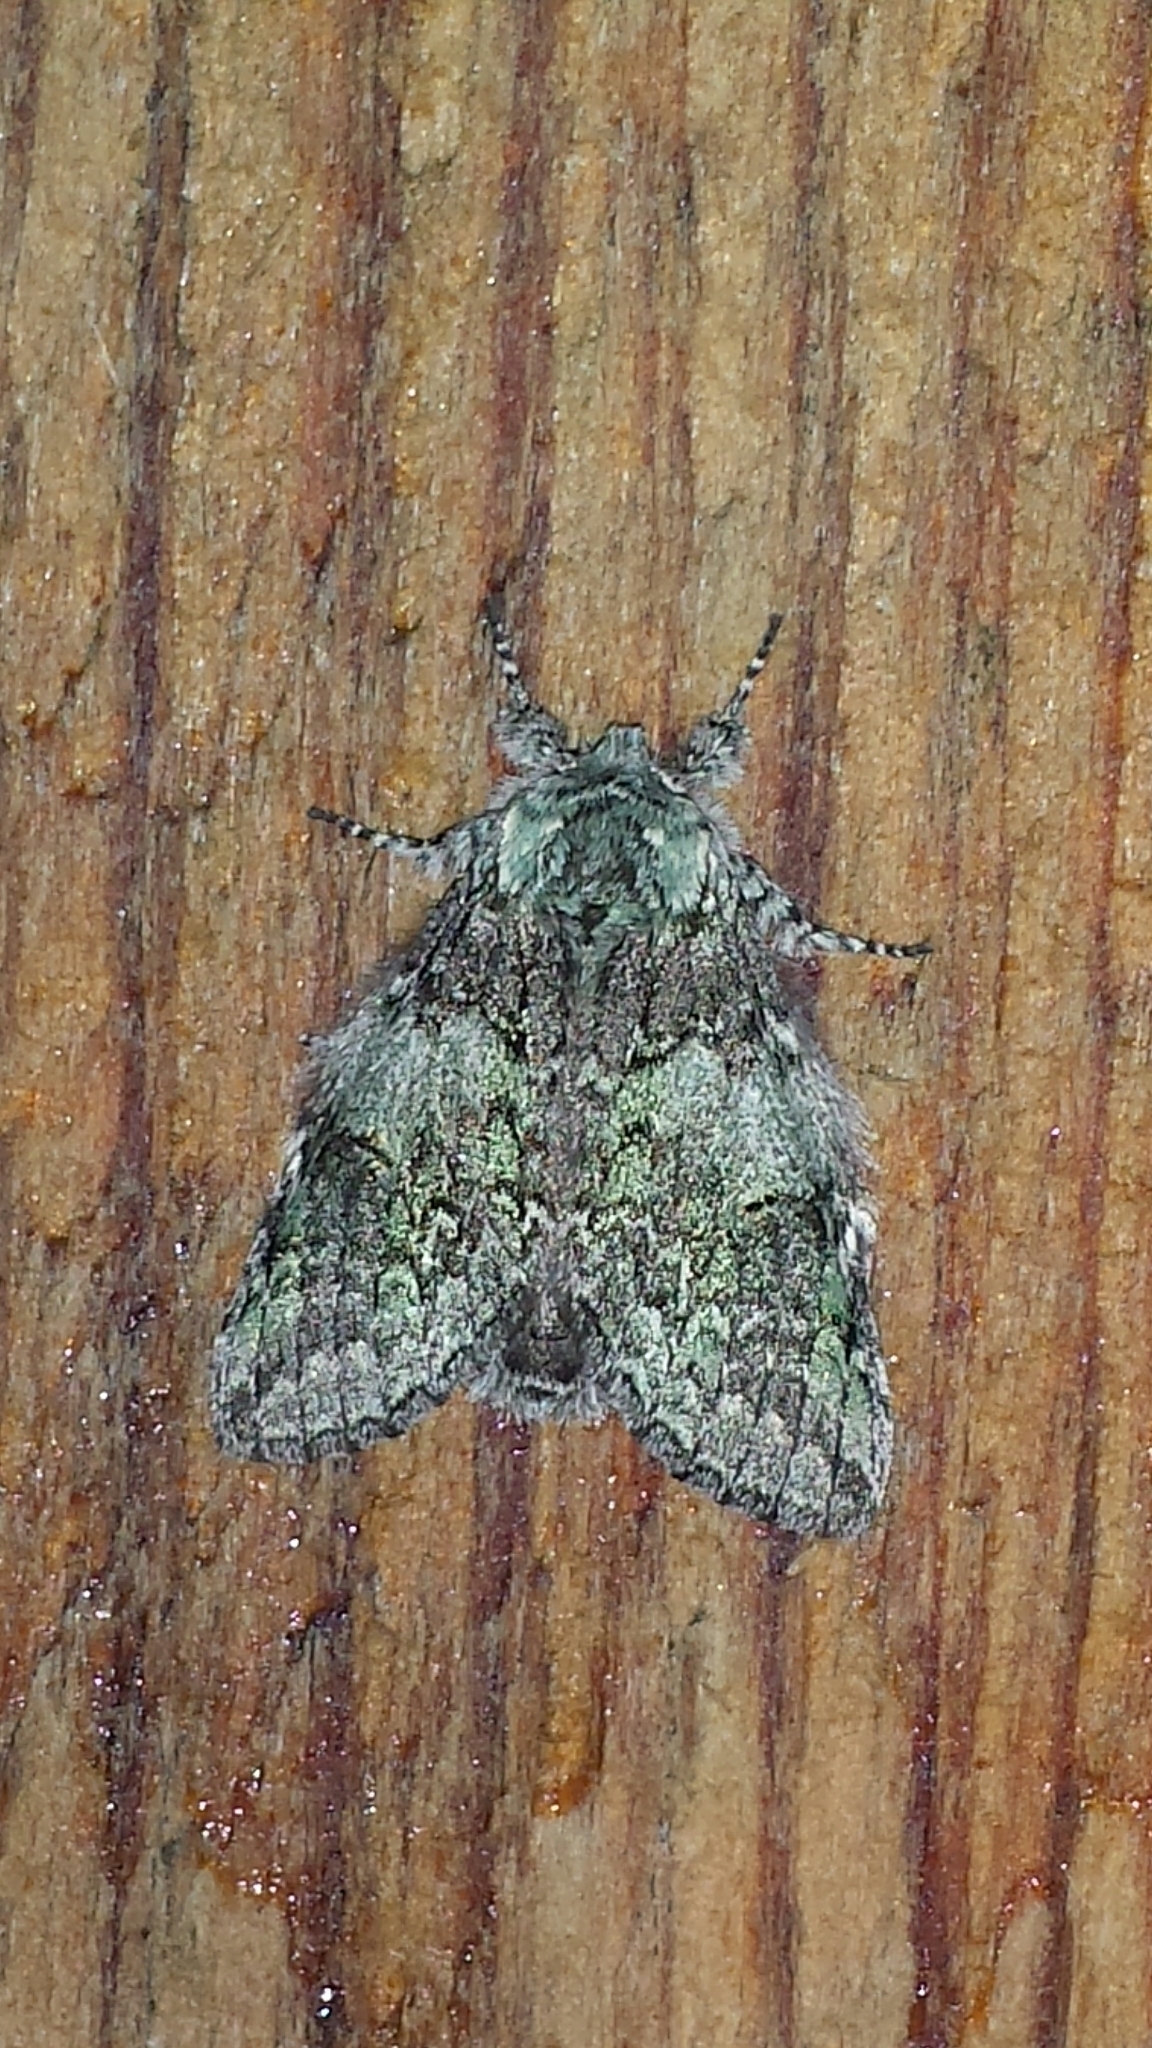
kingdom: Animalia
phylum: Arthropoda
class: Insecta
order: Lepidoptera
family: Notodontidae
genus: Macrurocampa
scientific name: Macrurocampa marthesia
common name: Mottled prominent
